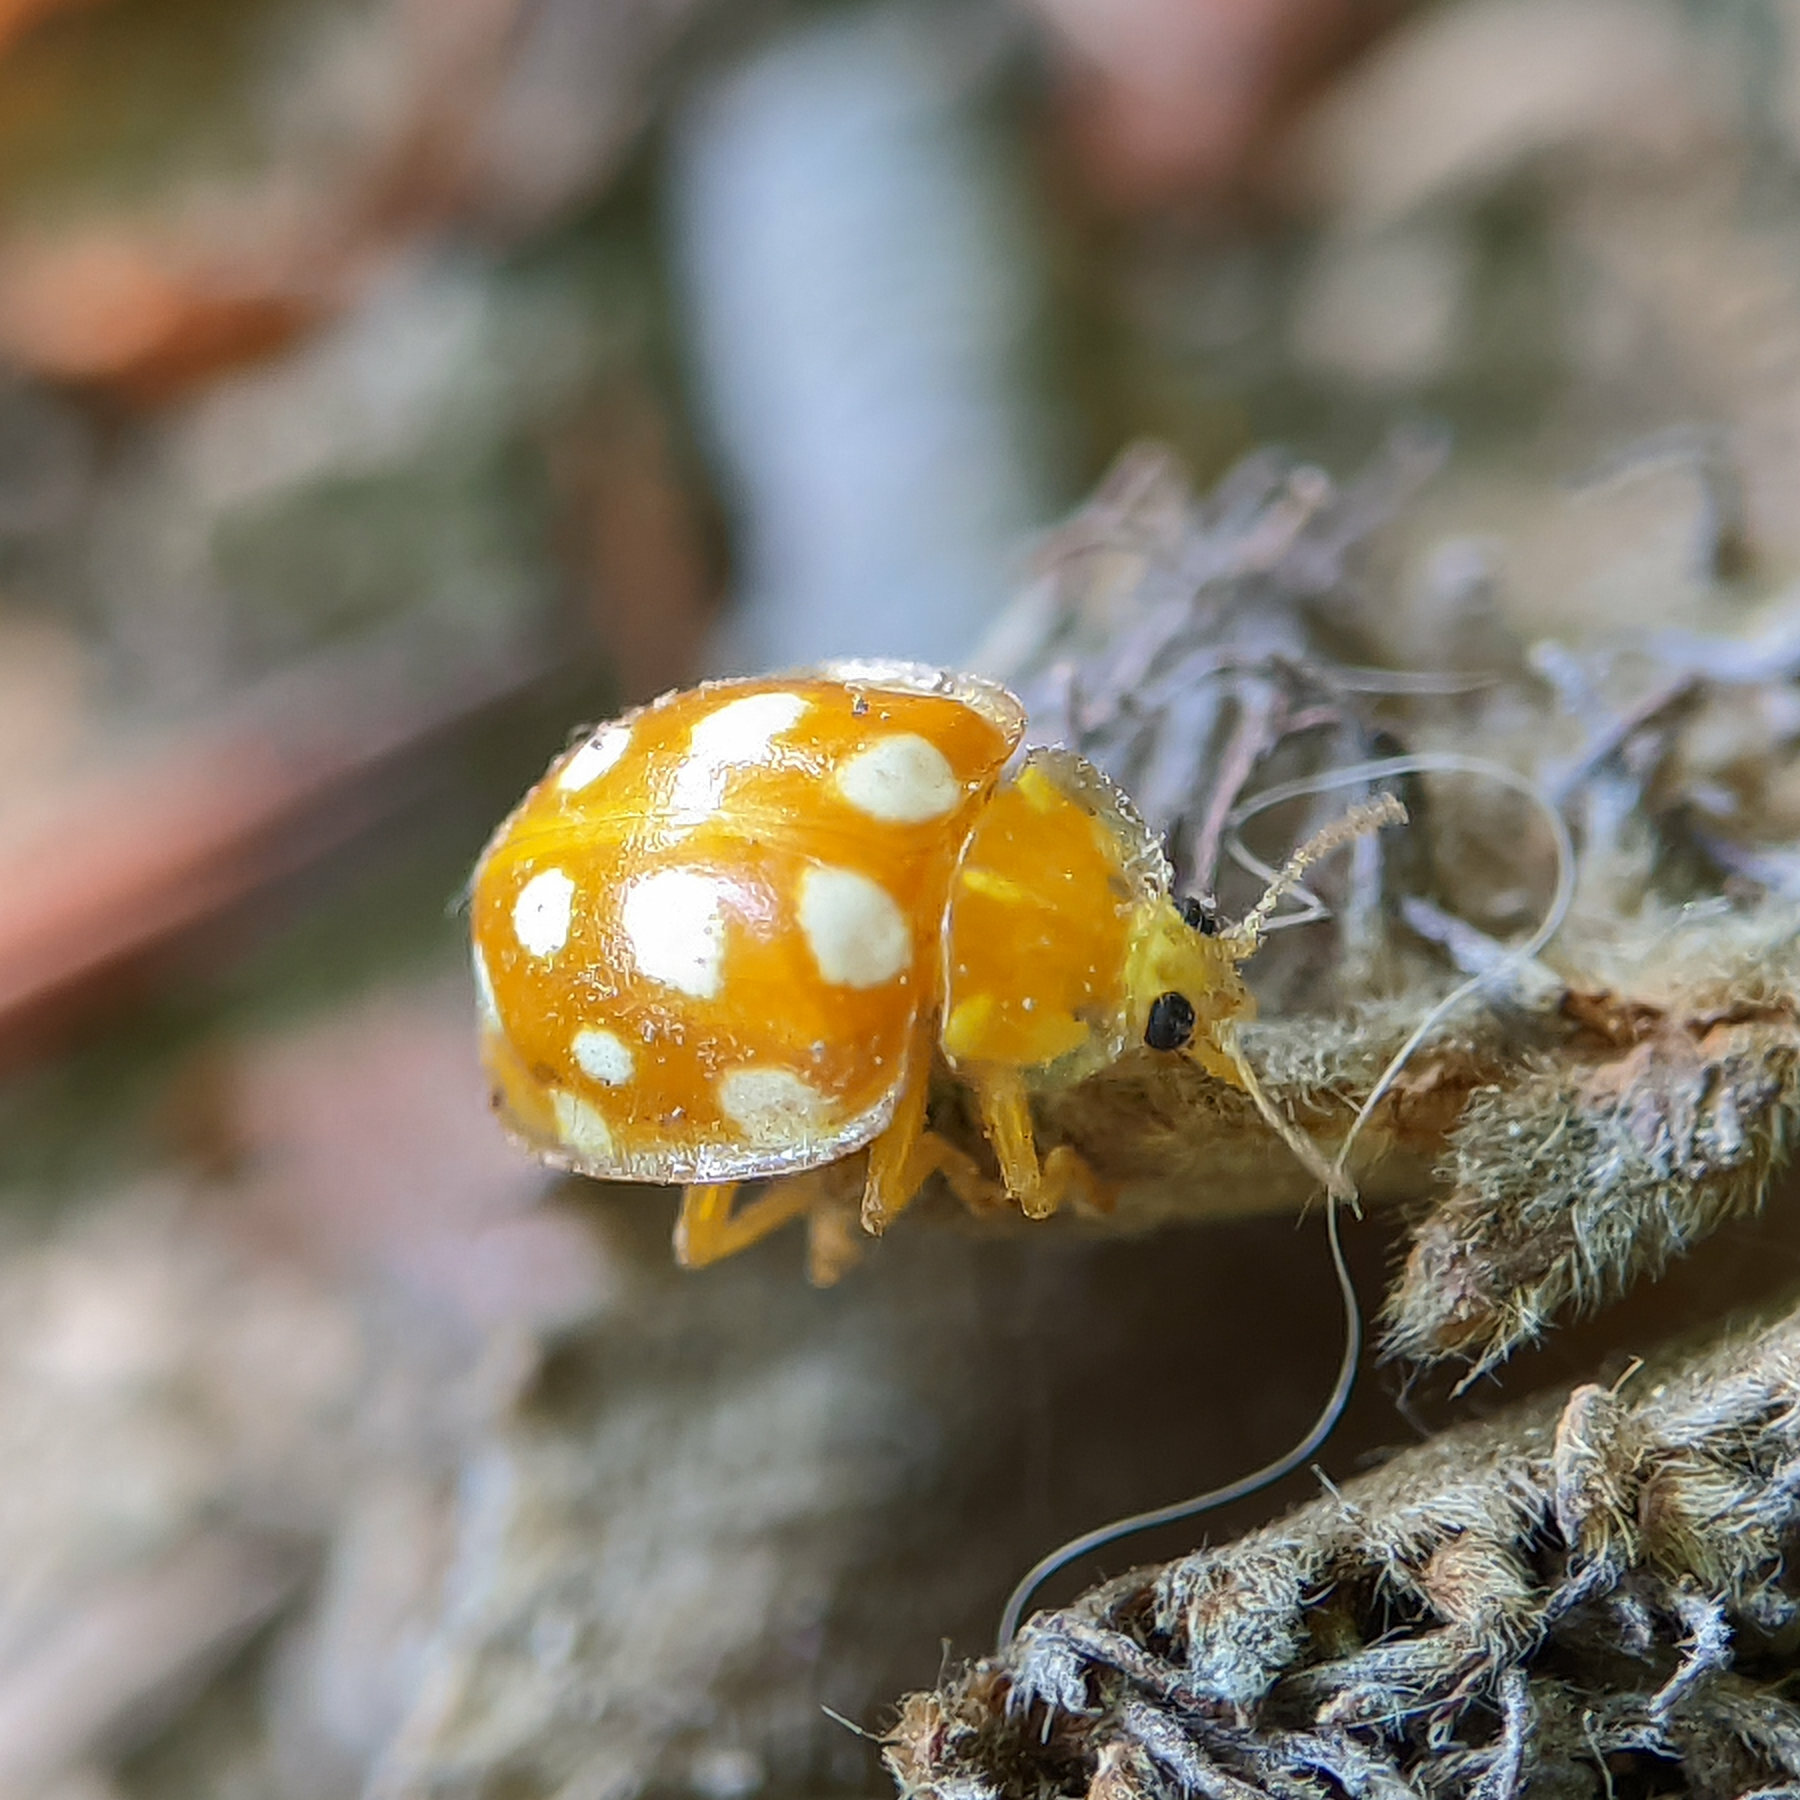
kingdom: Animalia
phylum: Arthropoda
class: Insecta
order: Coleoptera
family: Coccinellidae
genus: Halyzia
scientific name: Halyzia sedecimguttata
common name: Orange ladybird
